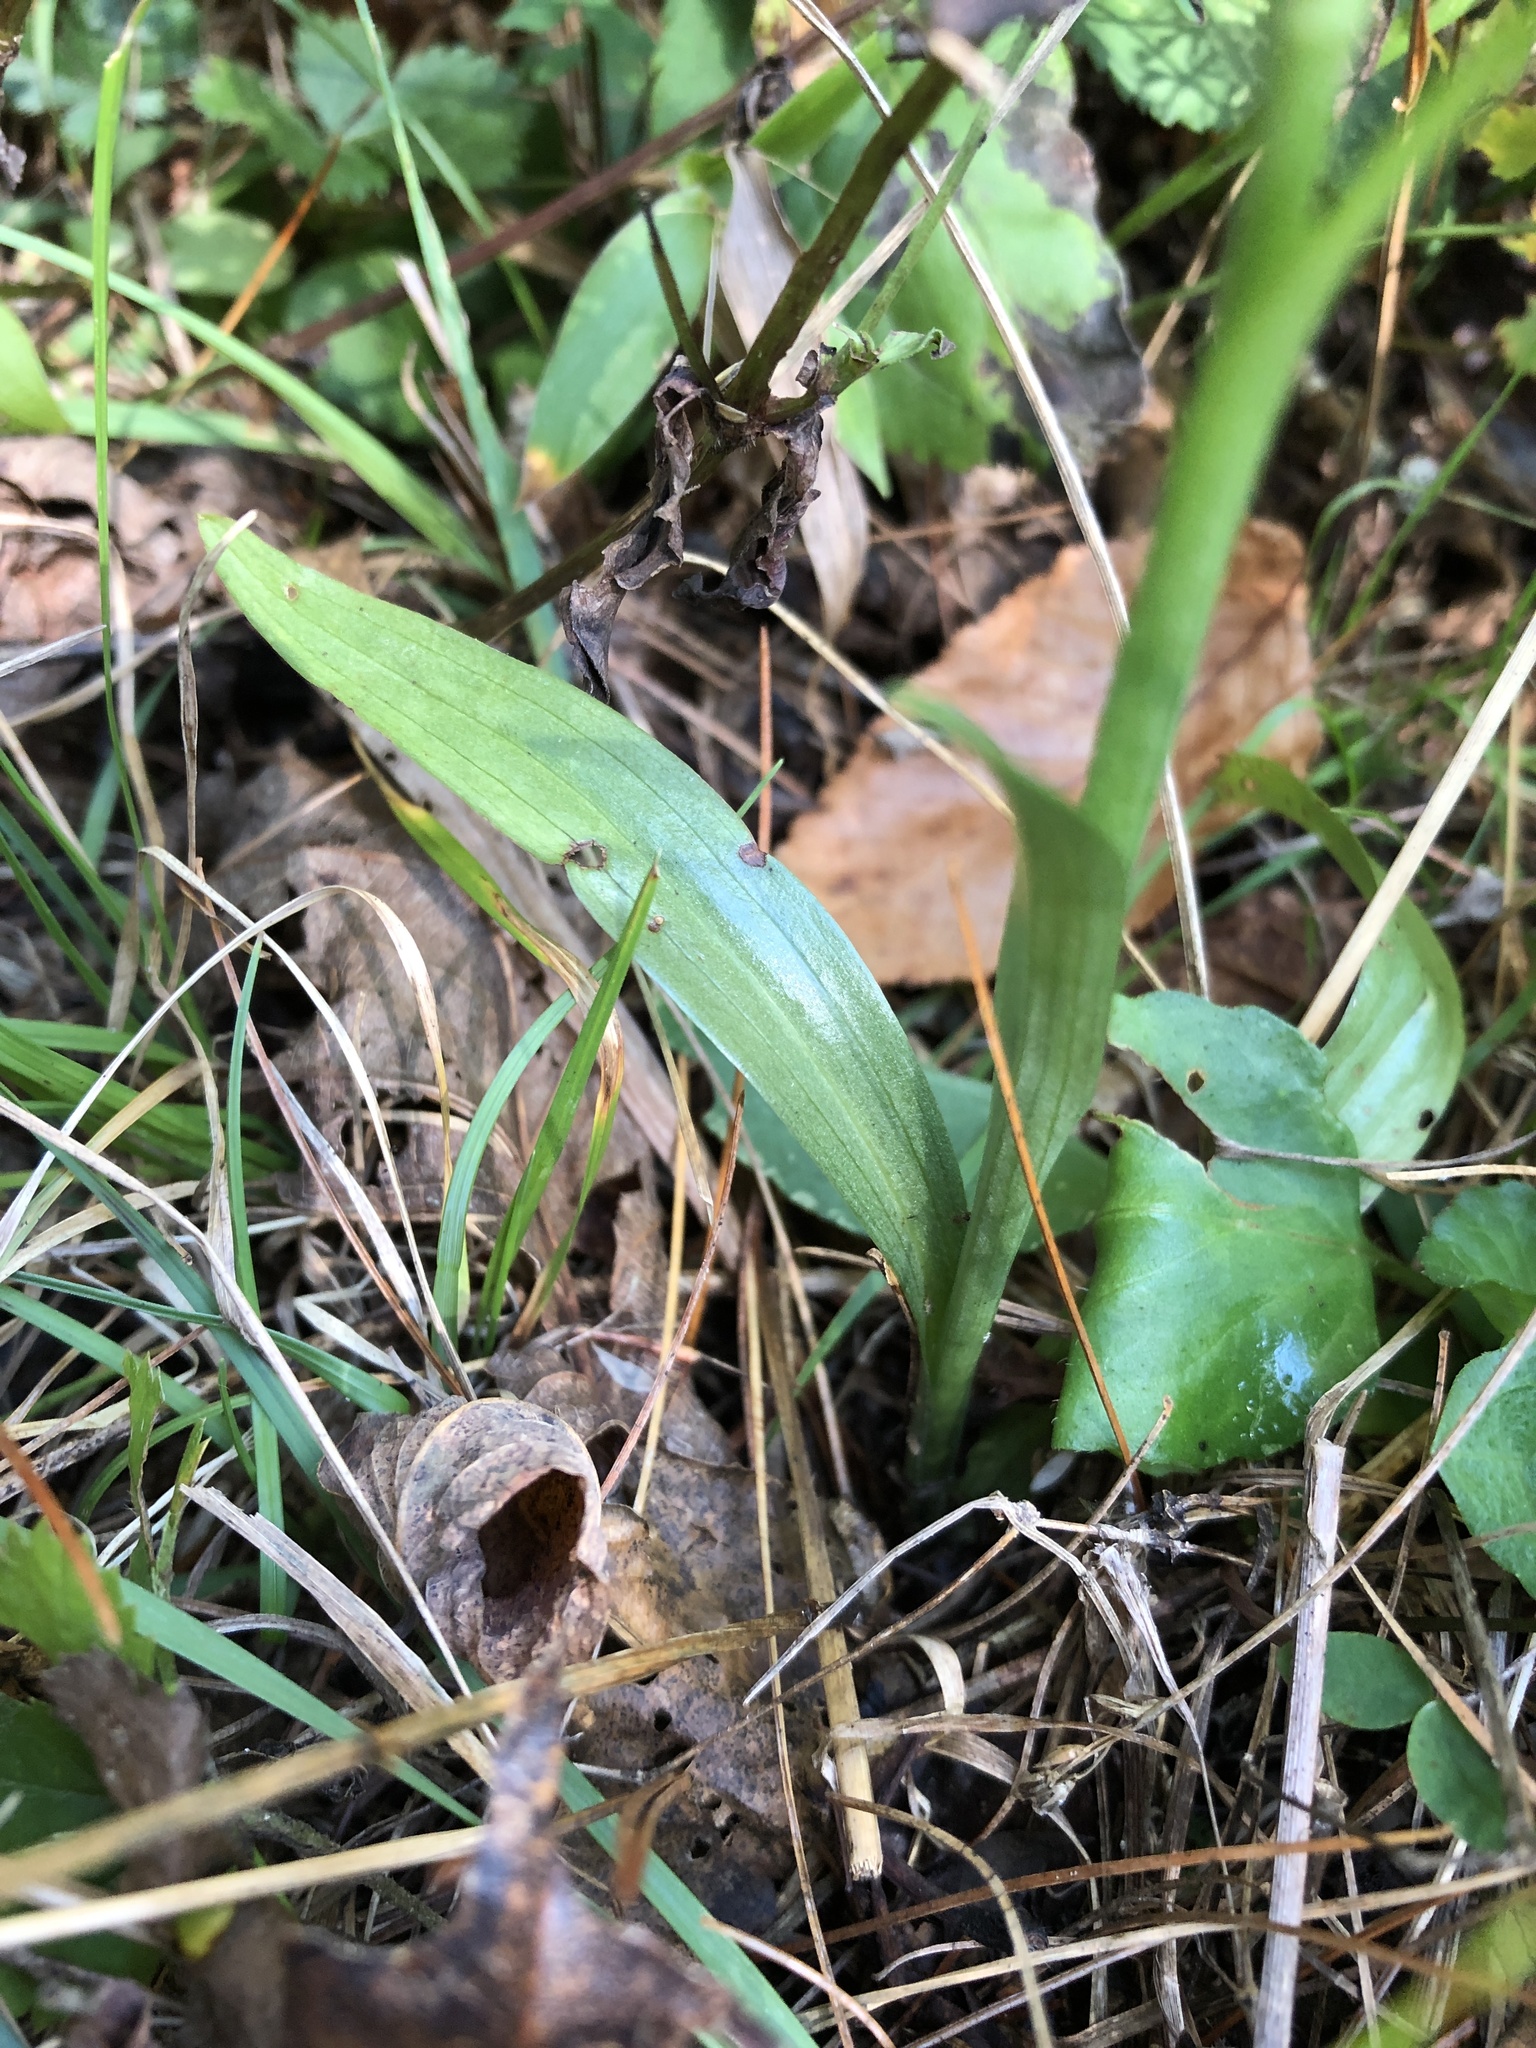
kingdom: Plantae
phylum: Tracheophyta
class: Liliopsida
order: Asparagales
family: Orchidaceae
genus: Spiranthes
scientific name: Spiranthes ochroleuca
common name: Yellow ladies'-tresses
